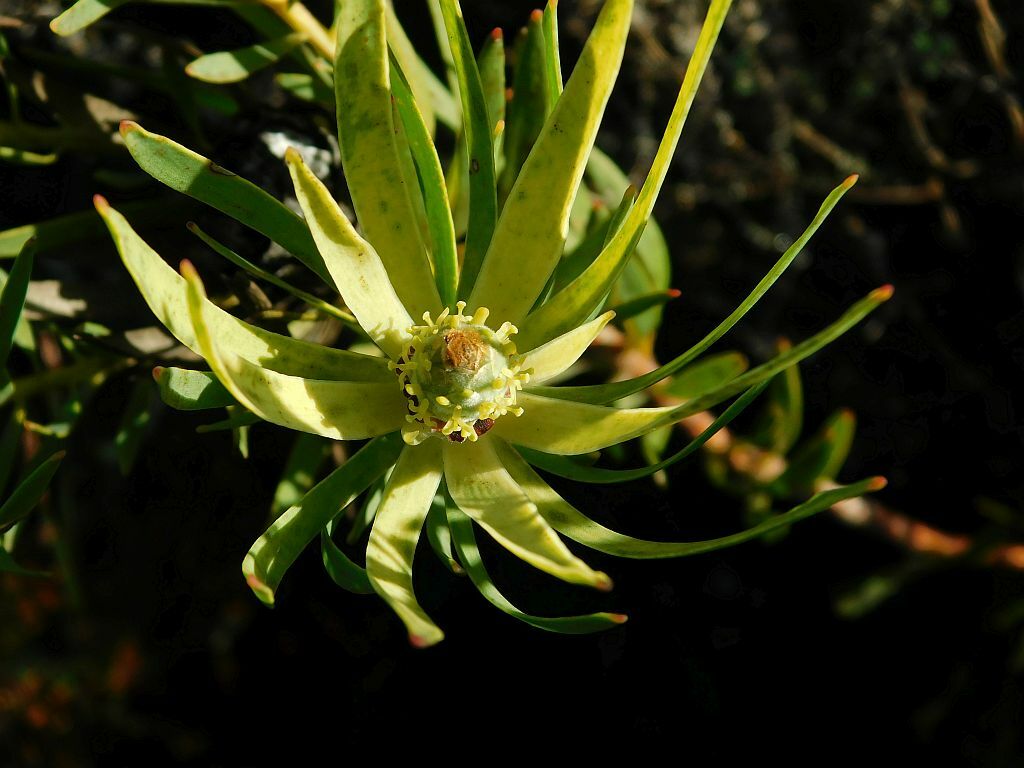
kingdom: Plantae
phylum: Tracheophyta
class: Magnoliopsida
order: Proteales
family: Proteaceae
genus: Leucadendron
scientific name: Leucadendron salignum
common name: Common sunshine conebush
